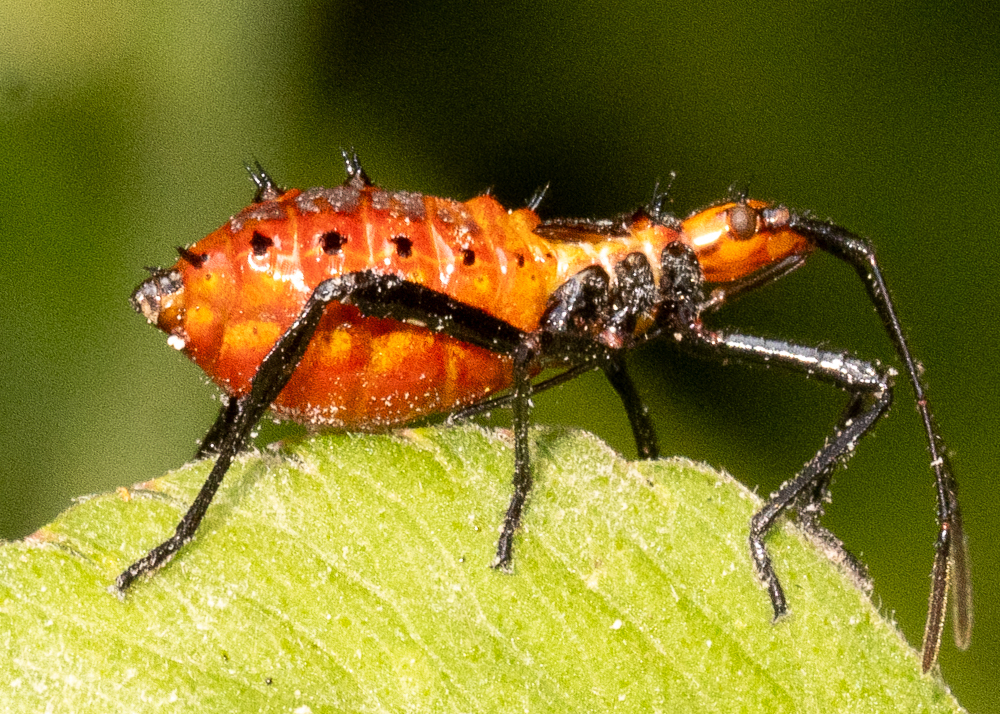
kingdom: Animalia
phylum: Arthropoda
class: Insecta
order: Hemiptera
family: Coreidae
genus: Leptoglossus
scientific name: Leptoglossus gonagra
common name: Citron bug
